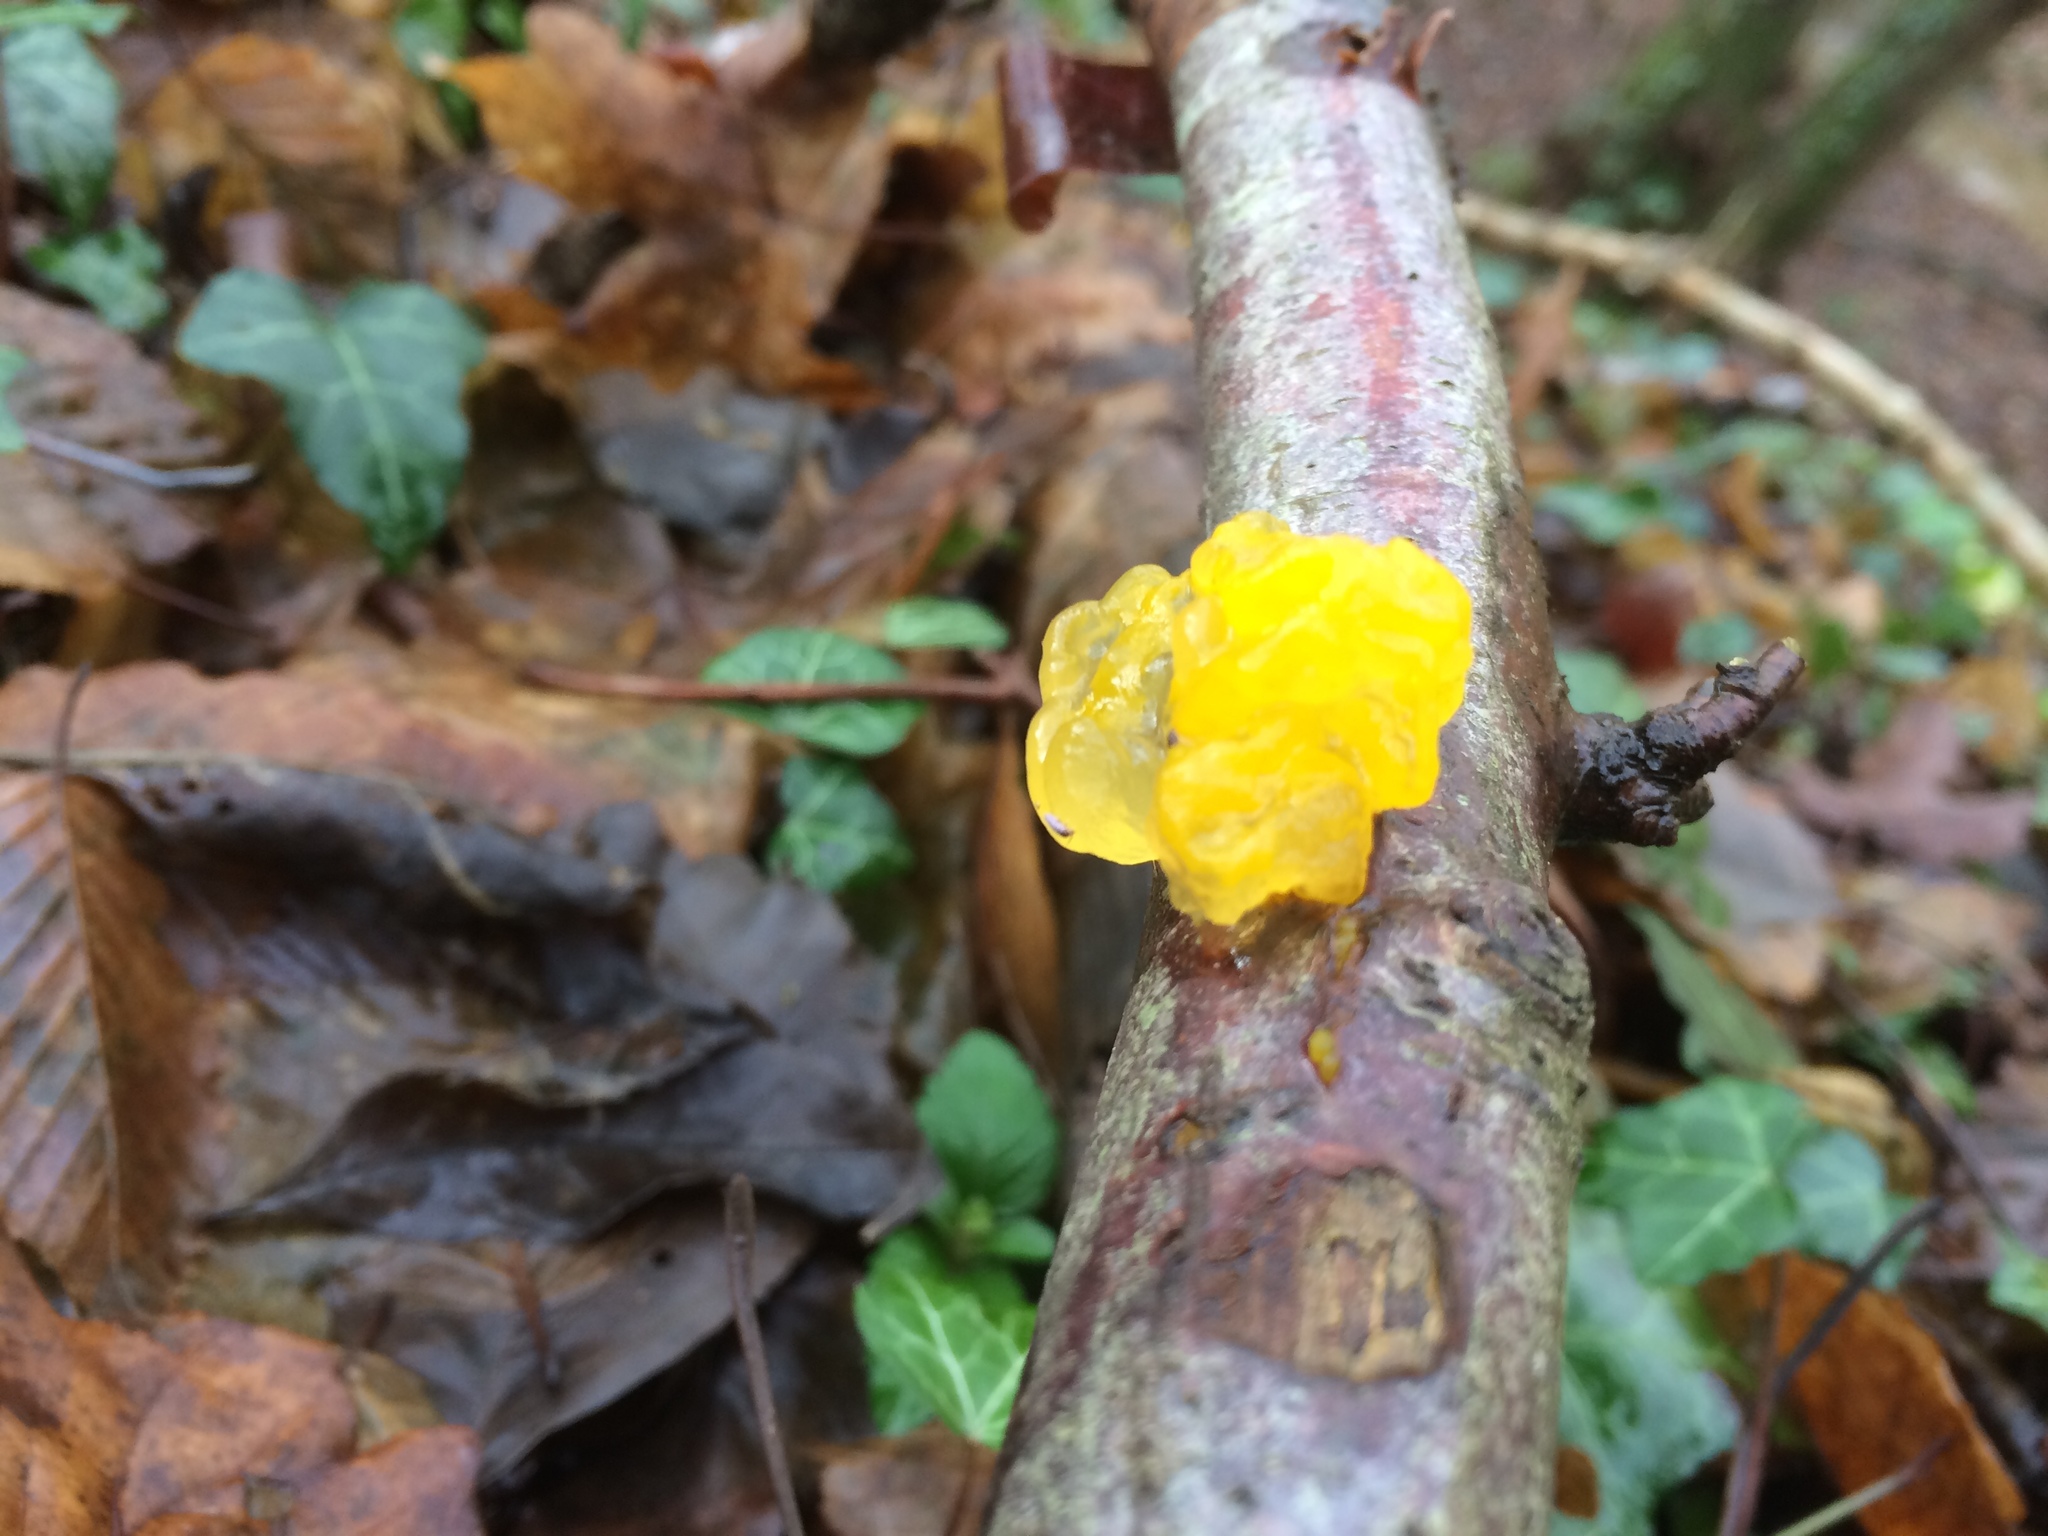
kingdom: Fungi
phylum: Basidiomycota
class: Tremellomycetes
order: Tremellales
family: Tremellaceae
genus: Tremella
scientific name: Tremella mesenterica
